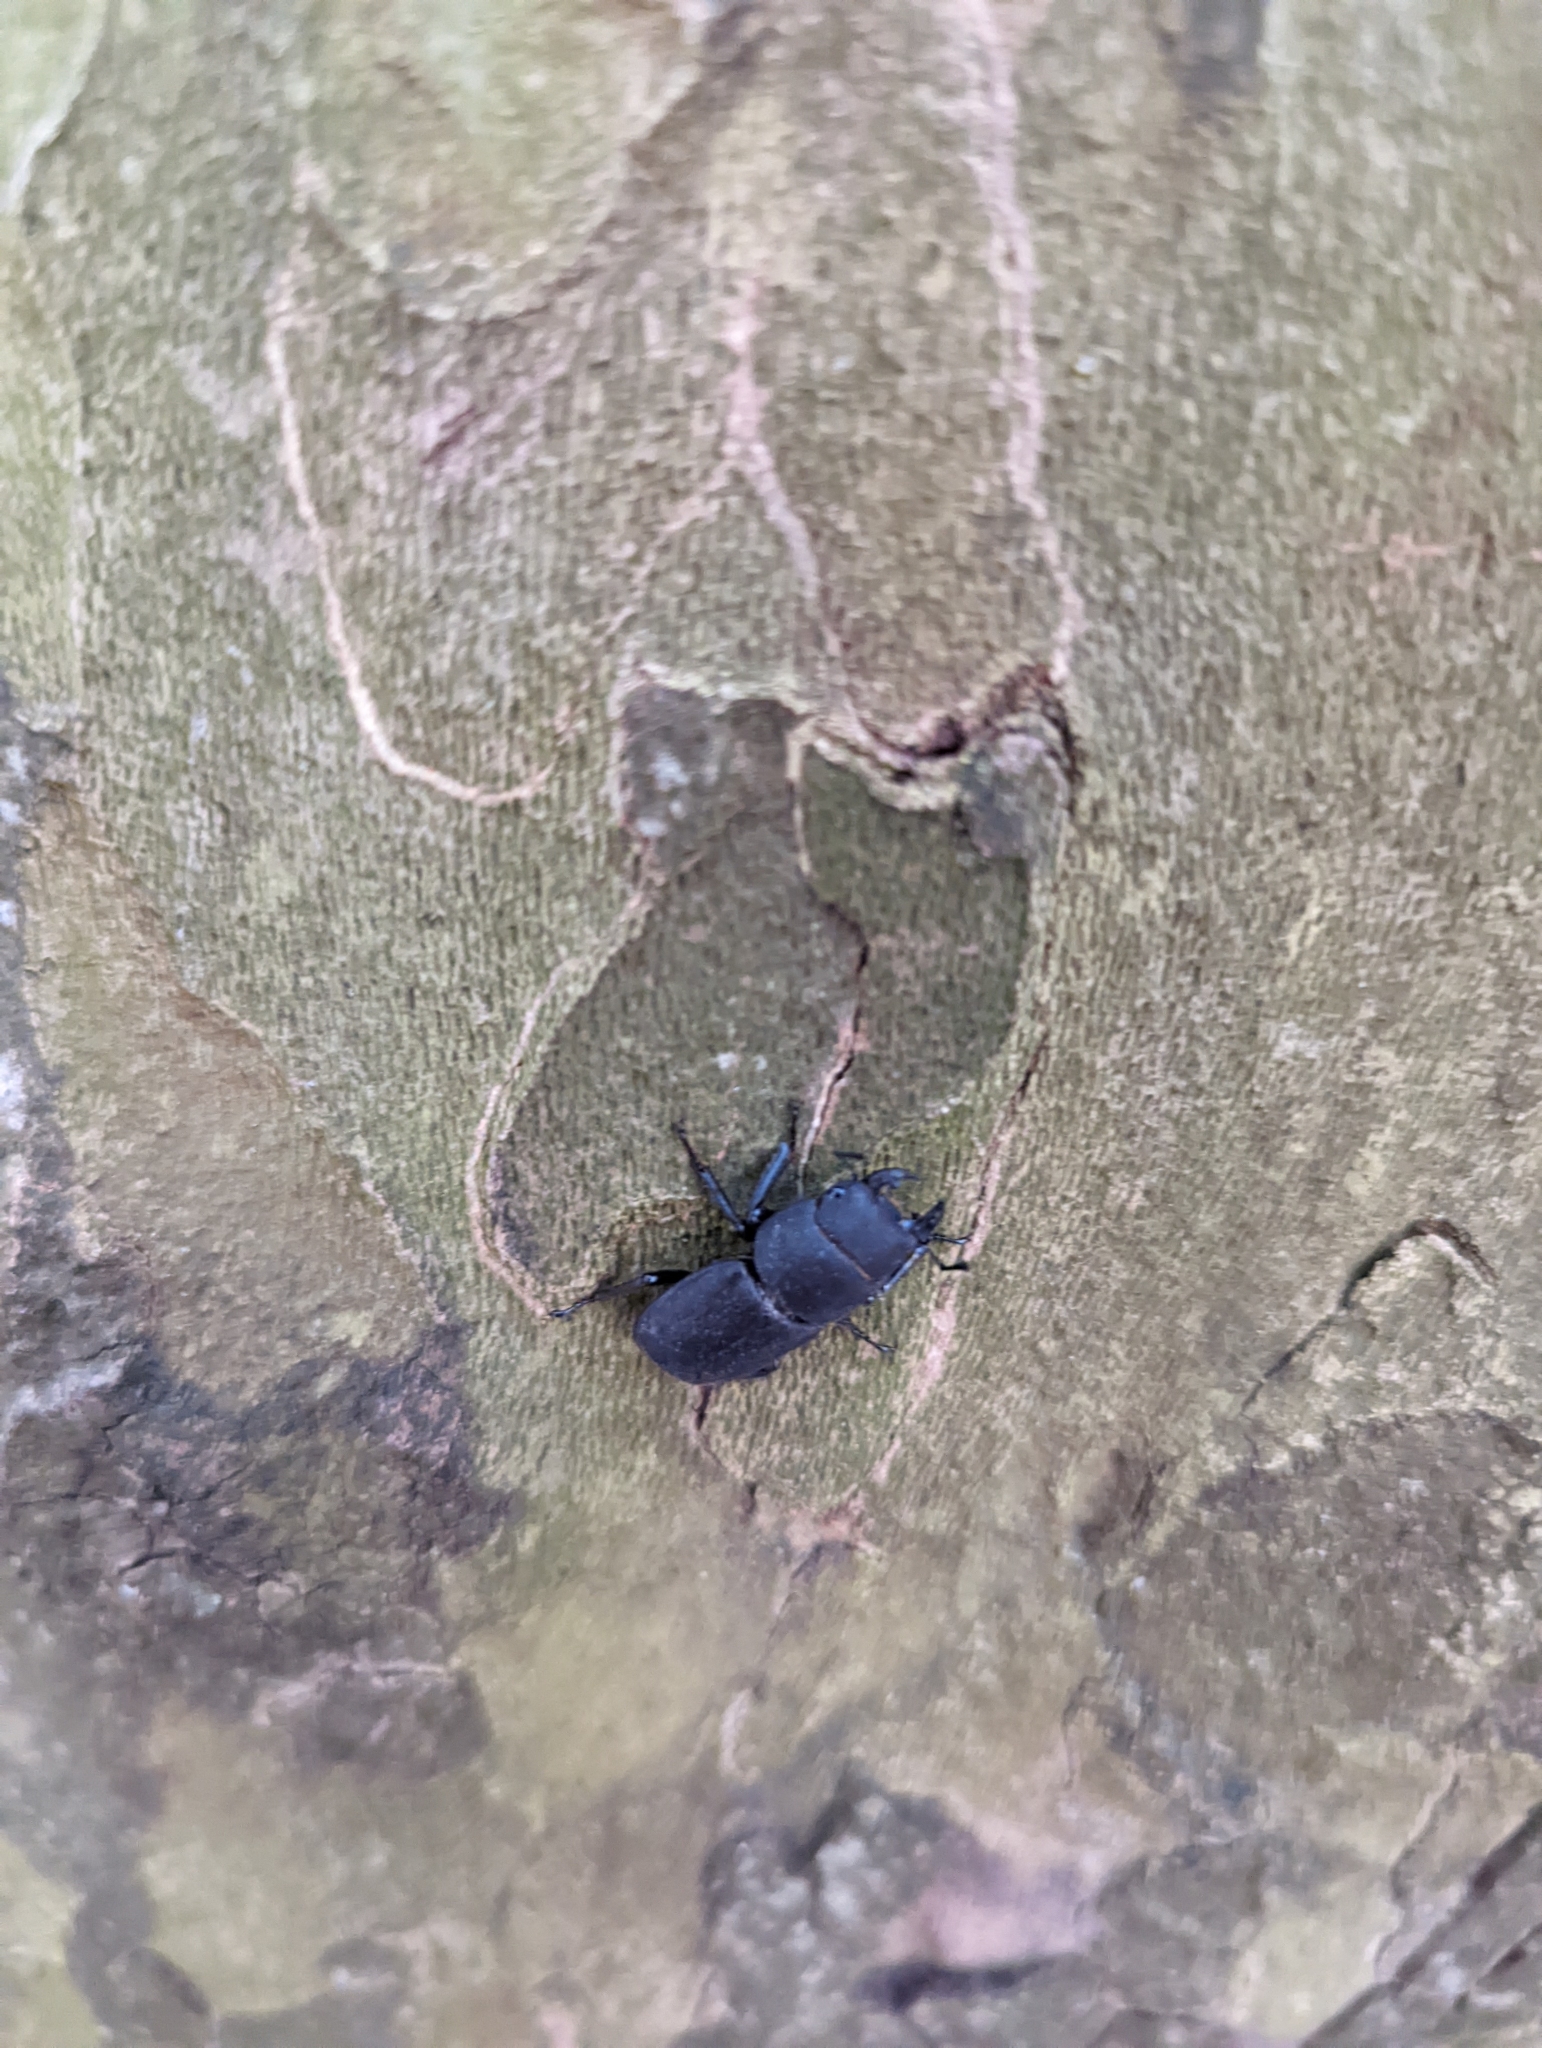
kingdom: Animalia
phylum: Arthropoda
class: Insecta
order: Coleoptera
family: Lucanidae
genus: Dorcus
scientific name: Dorcus parallelipipedus
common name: Lesser stag beetle
